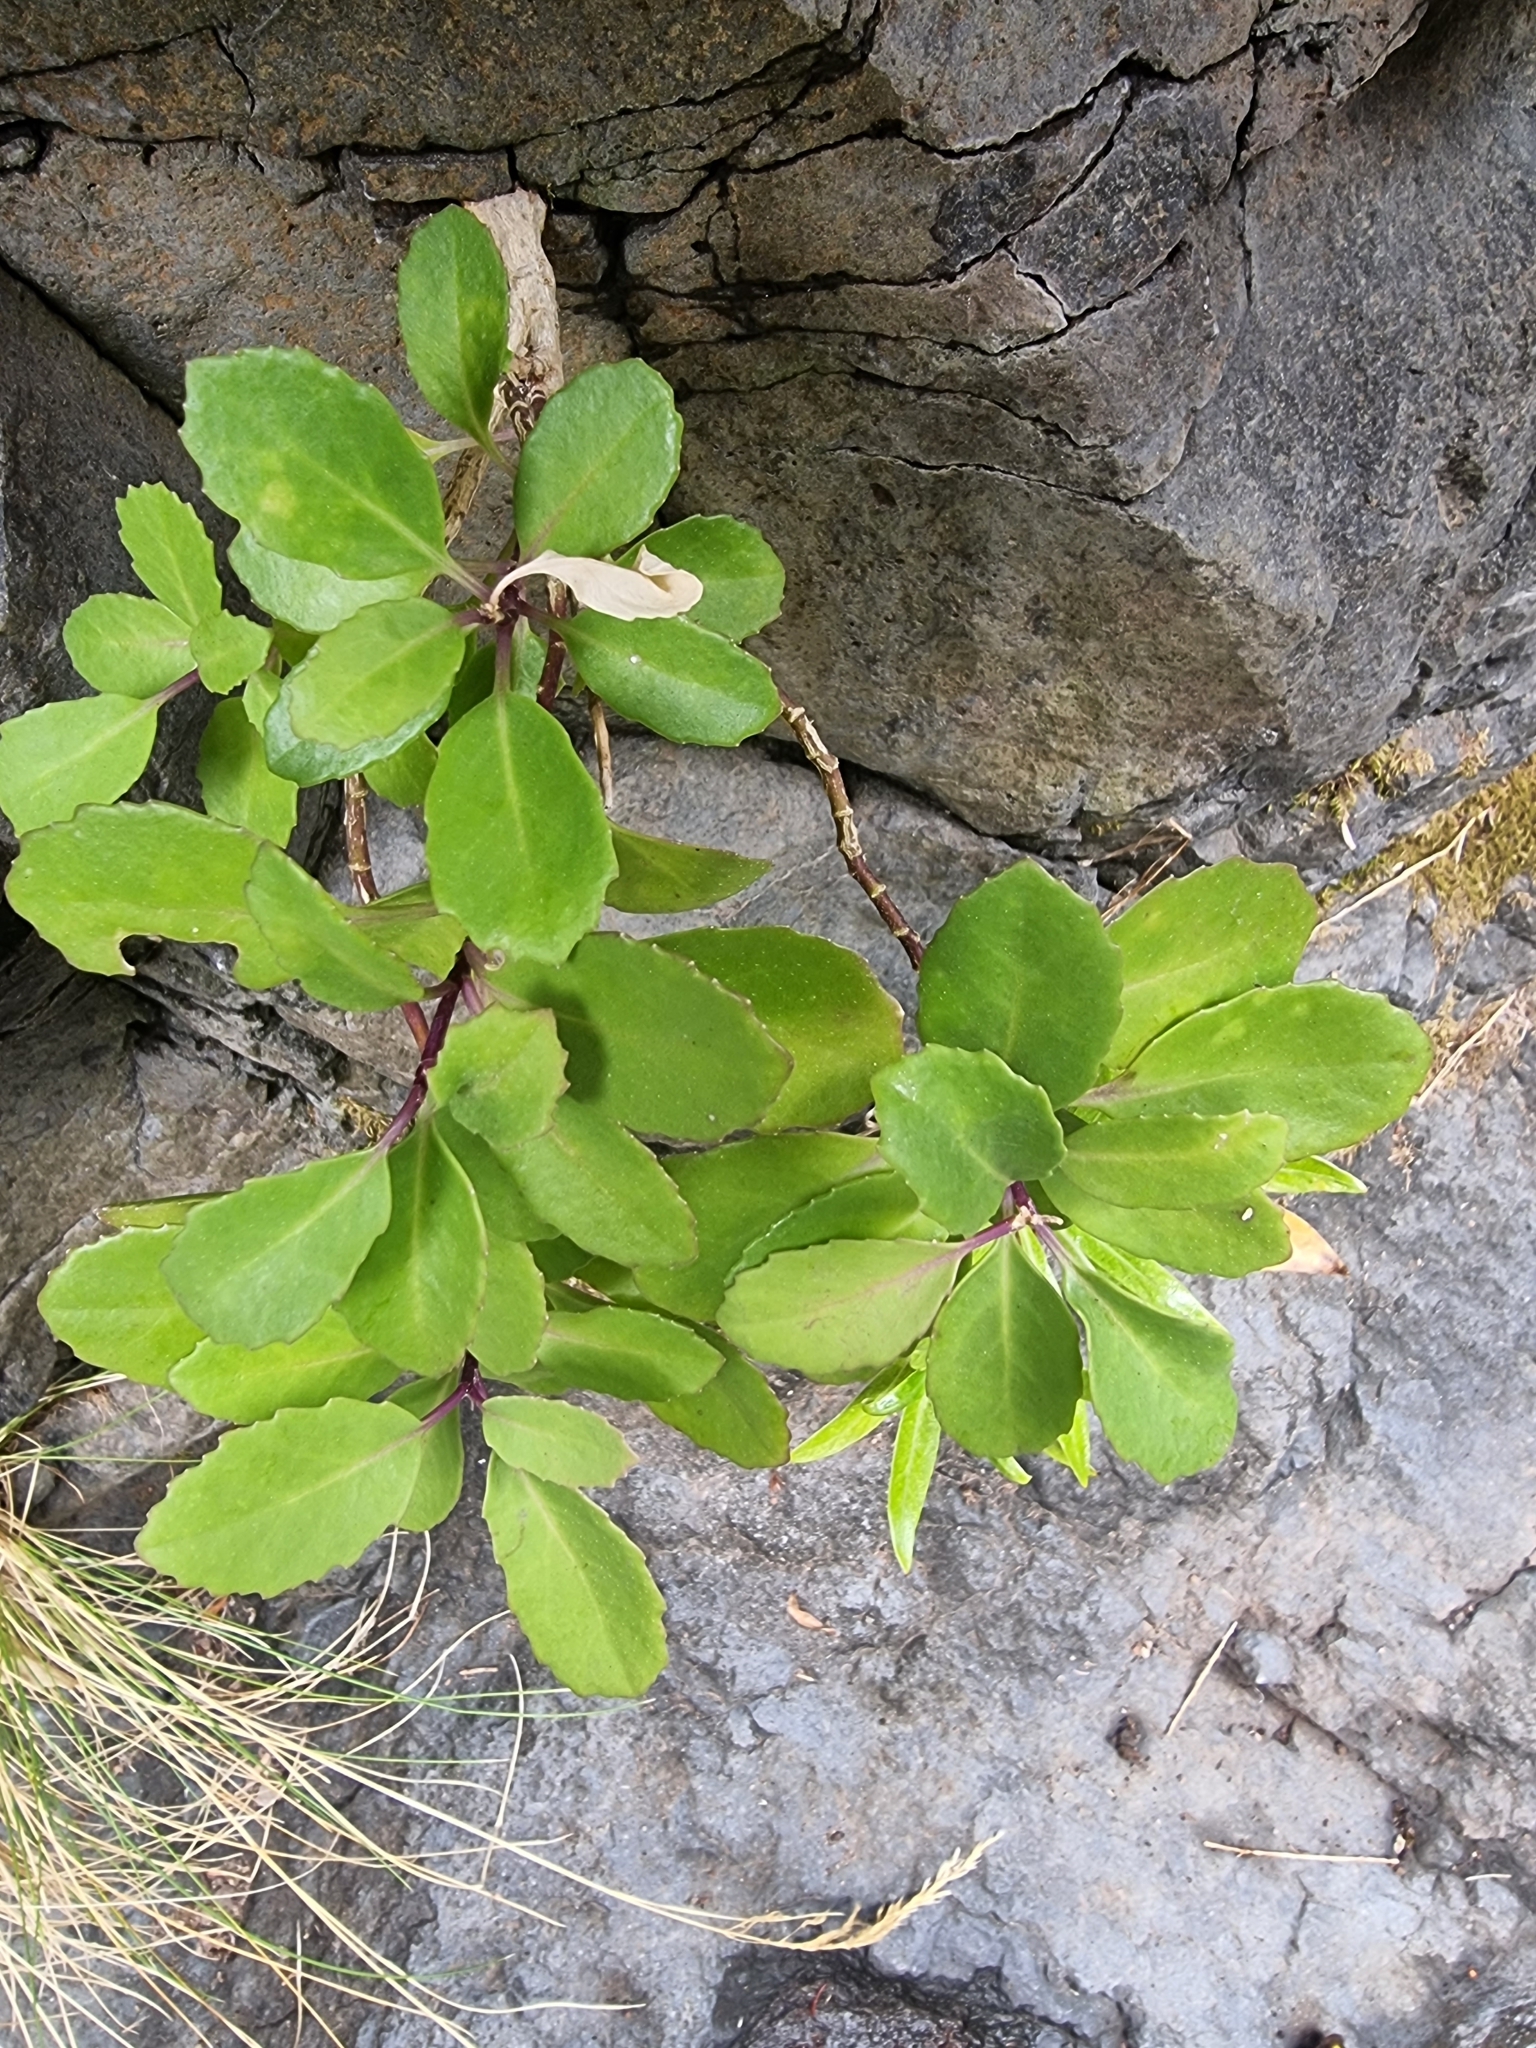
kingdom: Plantae
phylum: Tracheophyta
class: Magnoliopsida
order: Brassicales
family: Brassicaceae
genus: Sinapidendron
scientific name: Sinapidendron frutescens
